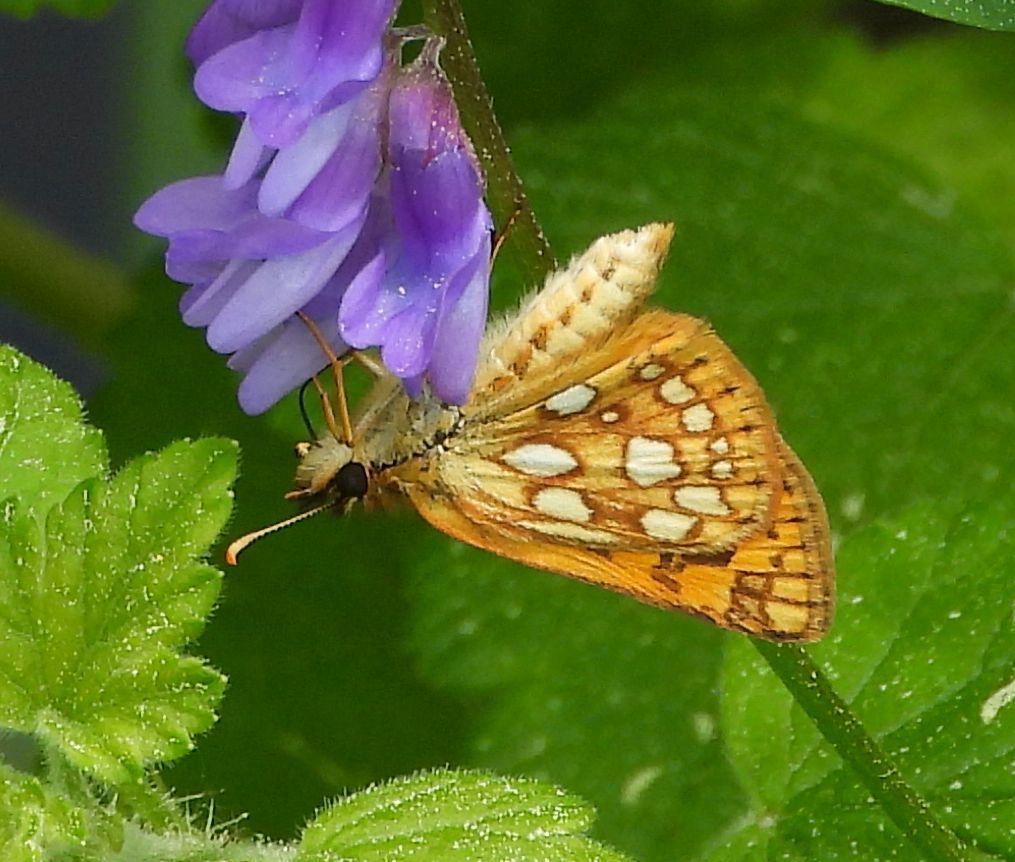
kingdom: Animalia
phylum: Arthropoda
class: Insecta
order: Lepidoptera
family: Hesperiidae
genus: Carterocephalus
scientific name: Carterocephalus mandan
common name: Arctic skipperling
